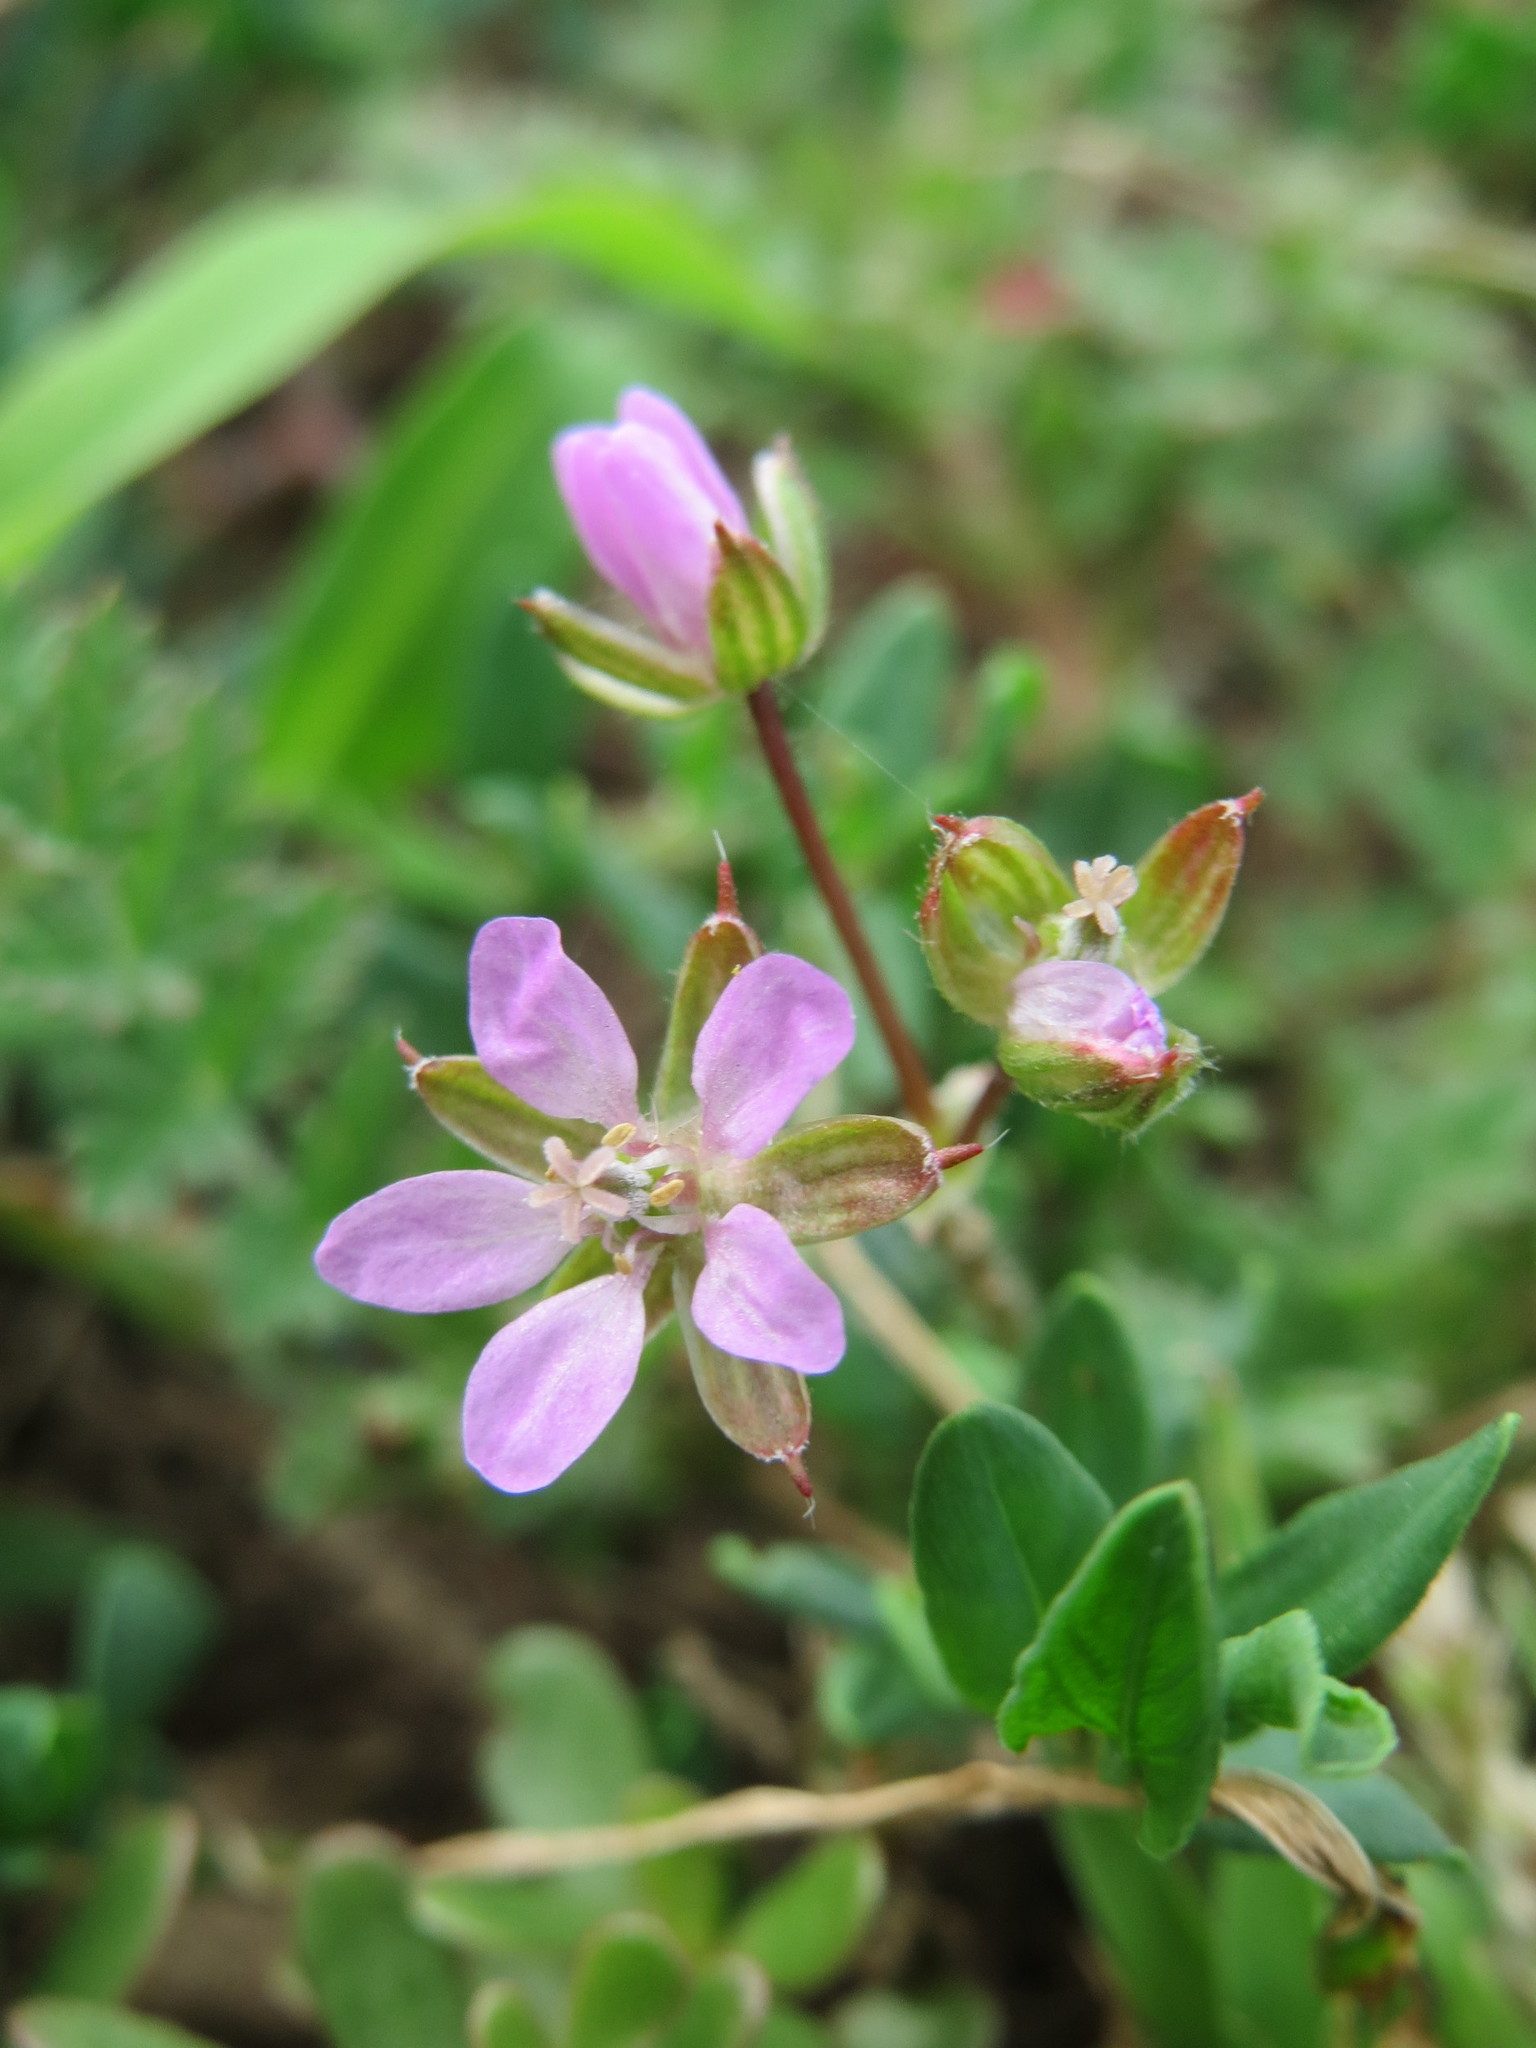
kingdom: Plantae
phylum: Tracheophyta
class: Magnoliopsida
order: Geraniales
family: Geraniaceae
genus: Erodium
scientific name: Erodium cicutarium
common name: Common stork's-bill
